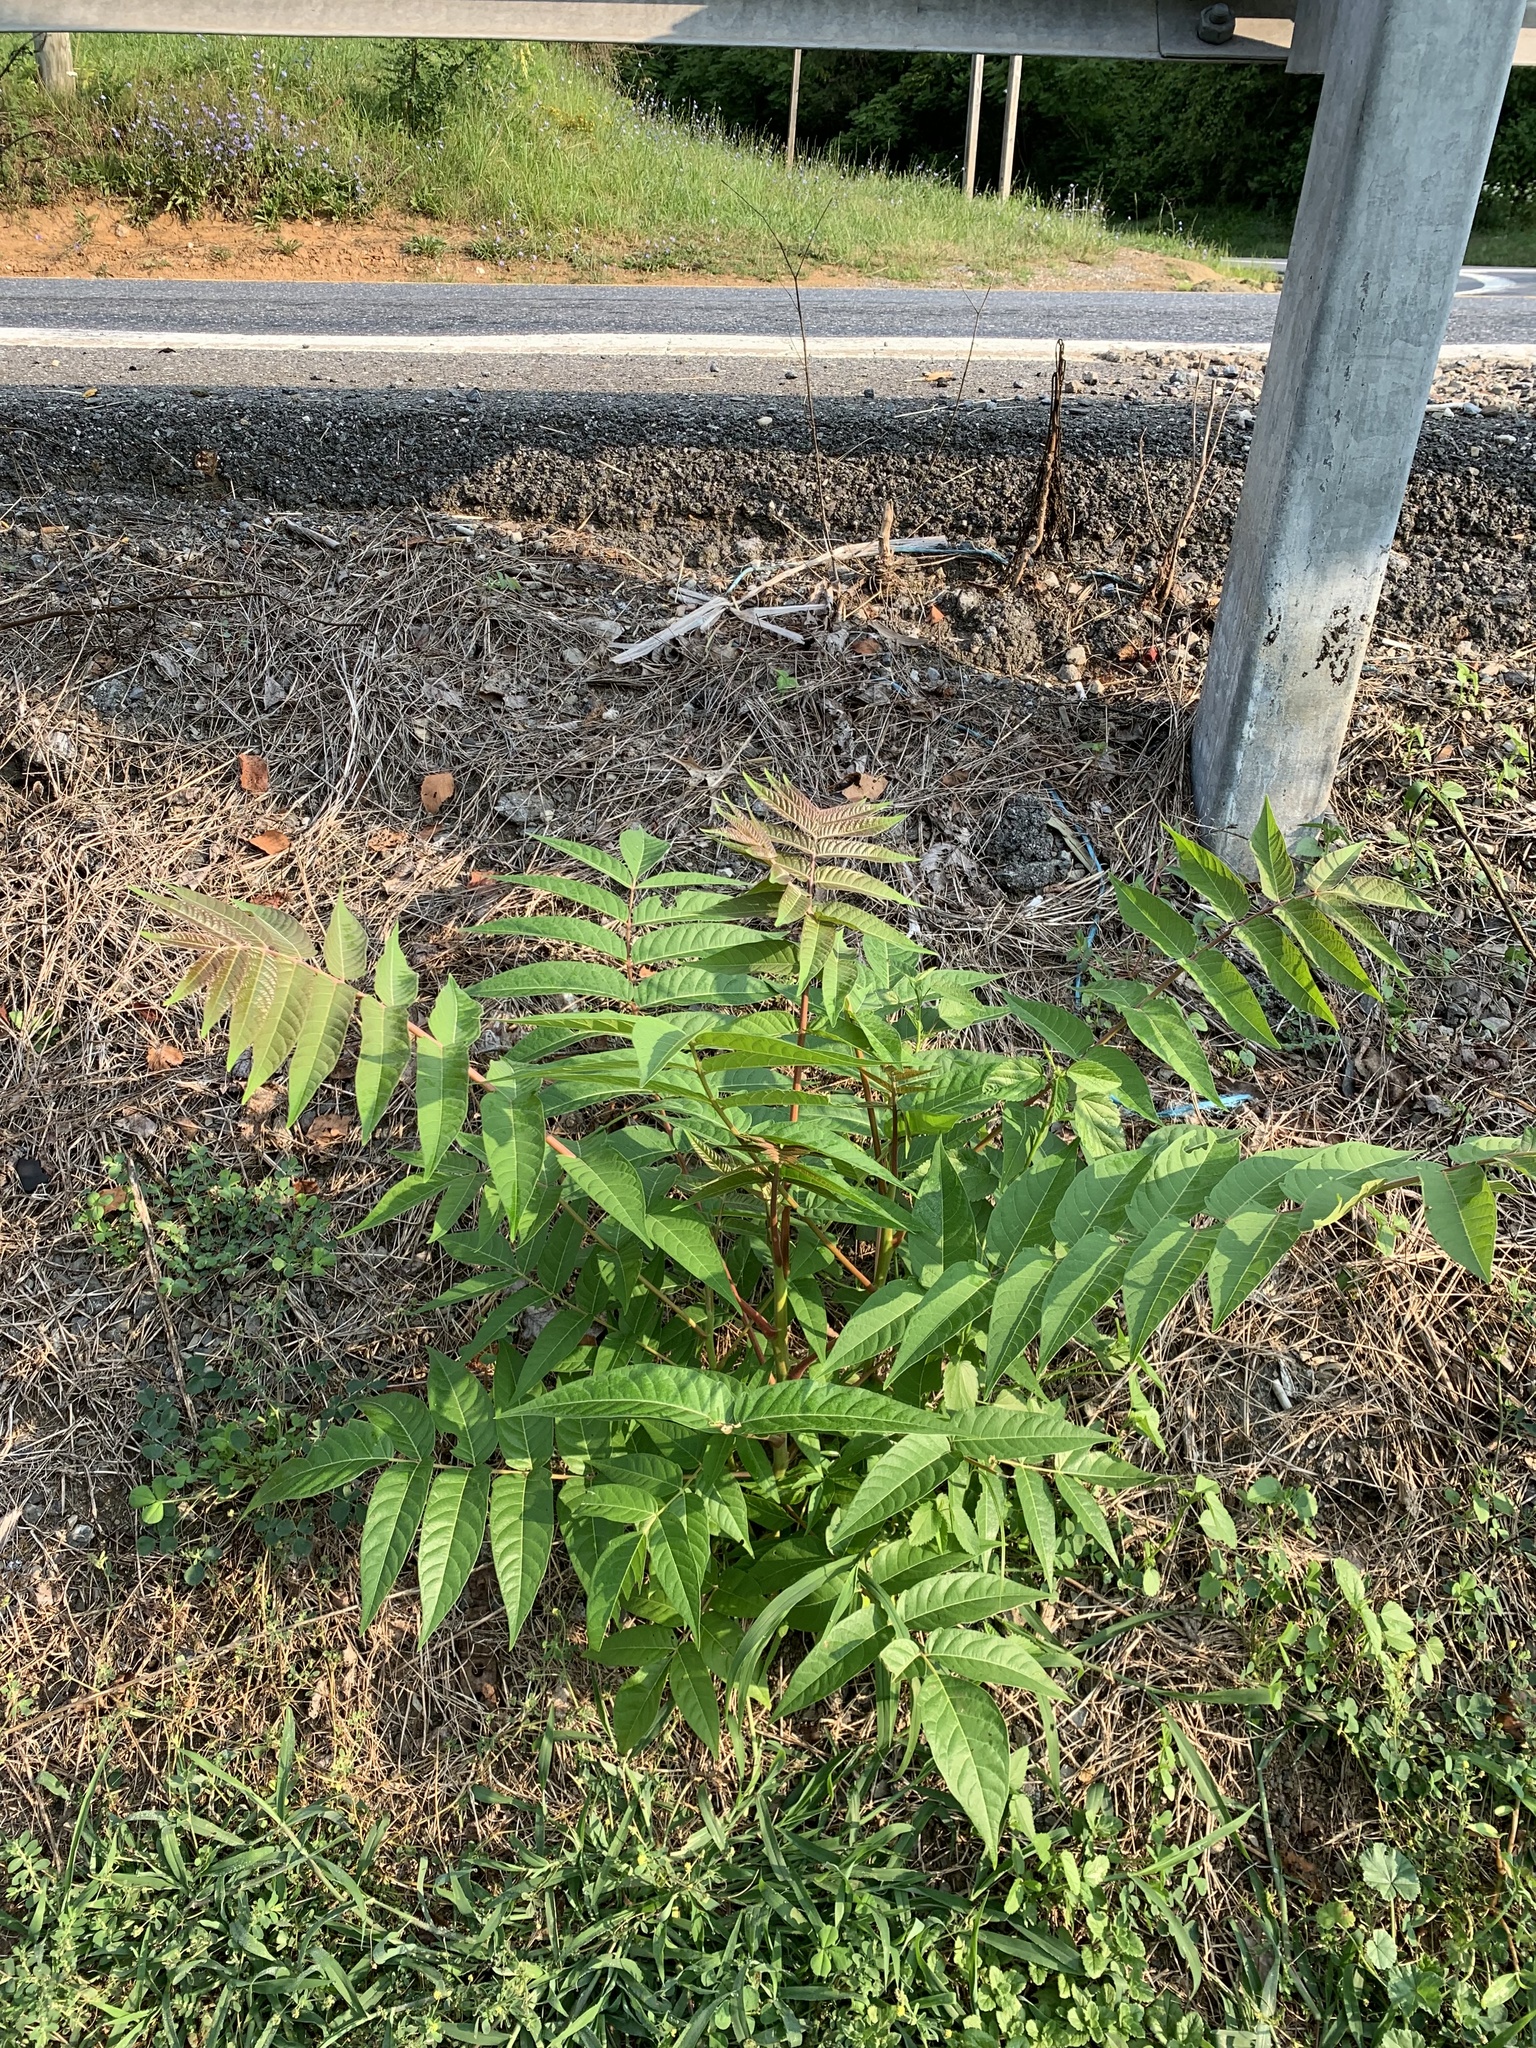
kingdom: Plantae
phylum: Tracheophyta
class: Magnoliopsida
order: Sapindales
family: Simaroubaceae
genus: Ailanthus
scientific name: Ailanthus altissima
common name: Tree-of-heaven
